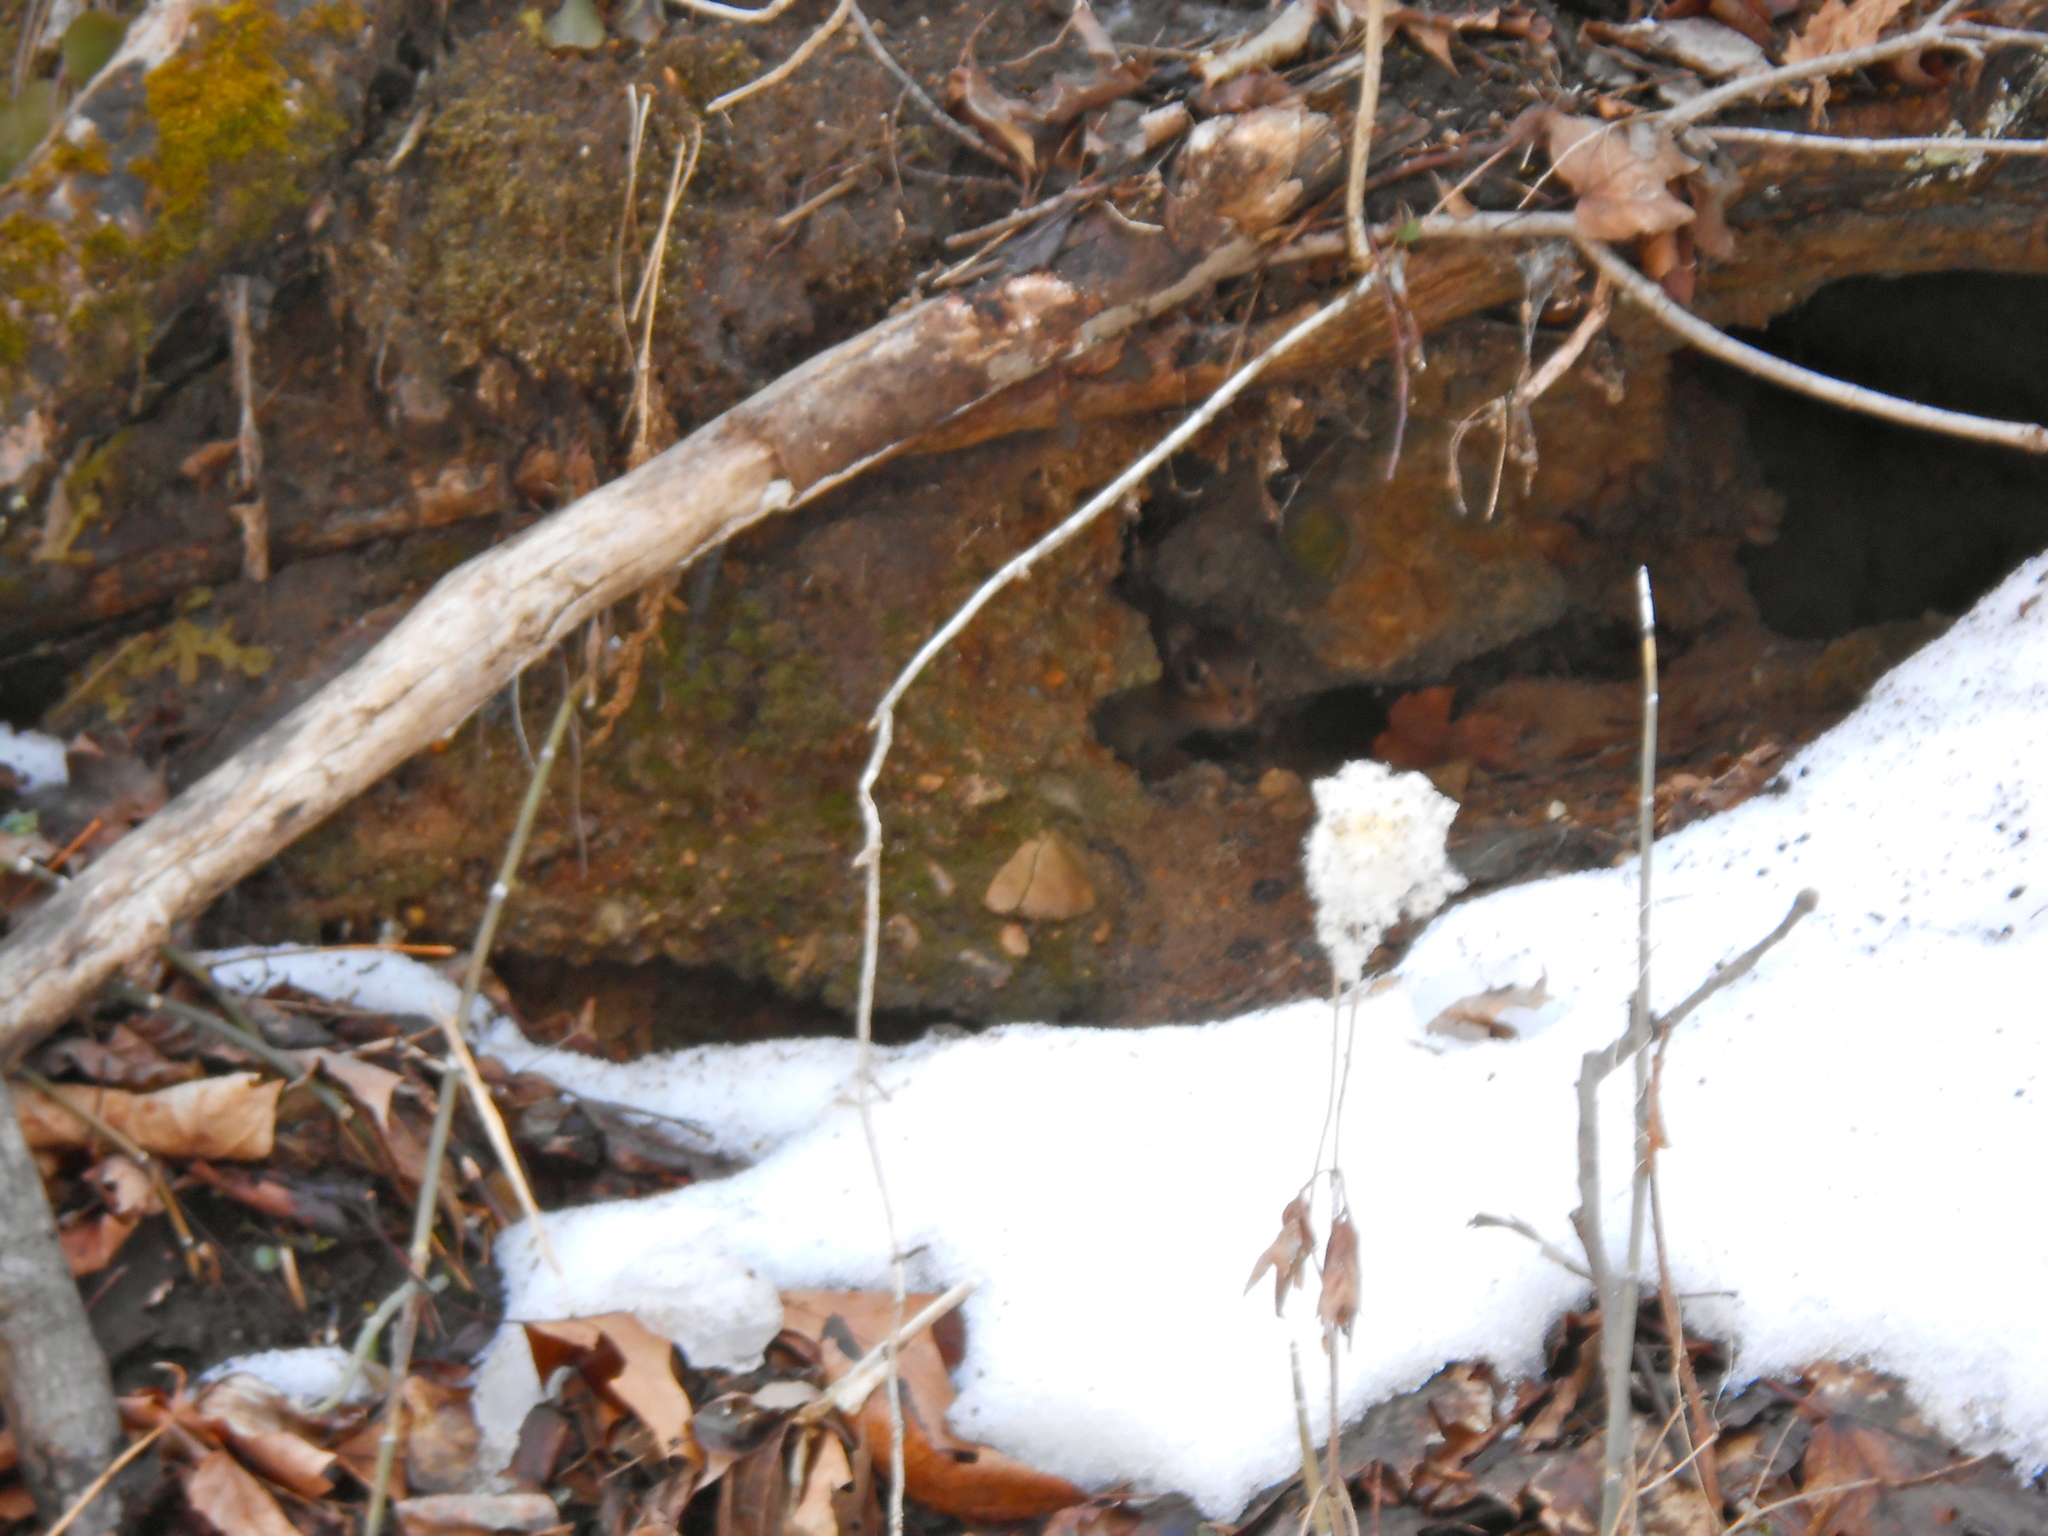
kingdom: Animalia
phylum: Chordata
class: Mammalia
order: Rodentia
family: Sciuridae
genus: Tamias
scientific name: Tamias striatus
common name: Eastern chipmunk
